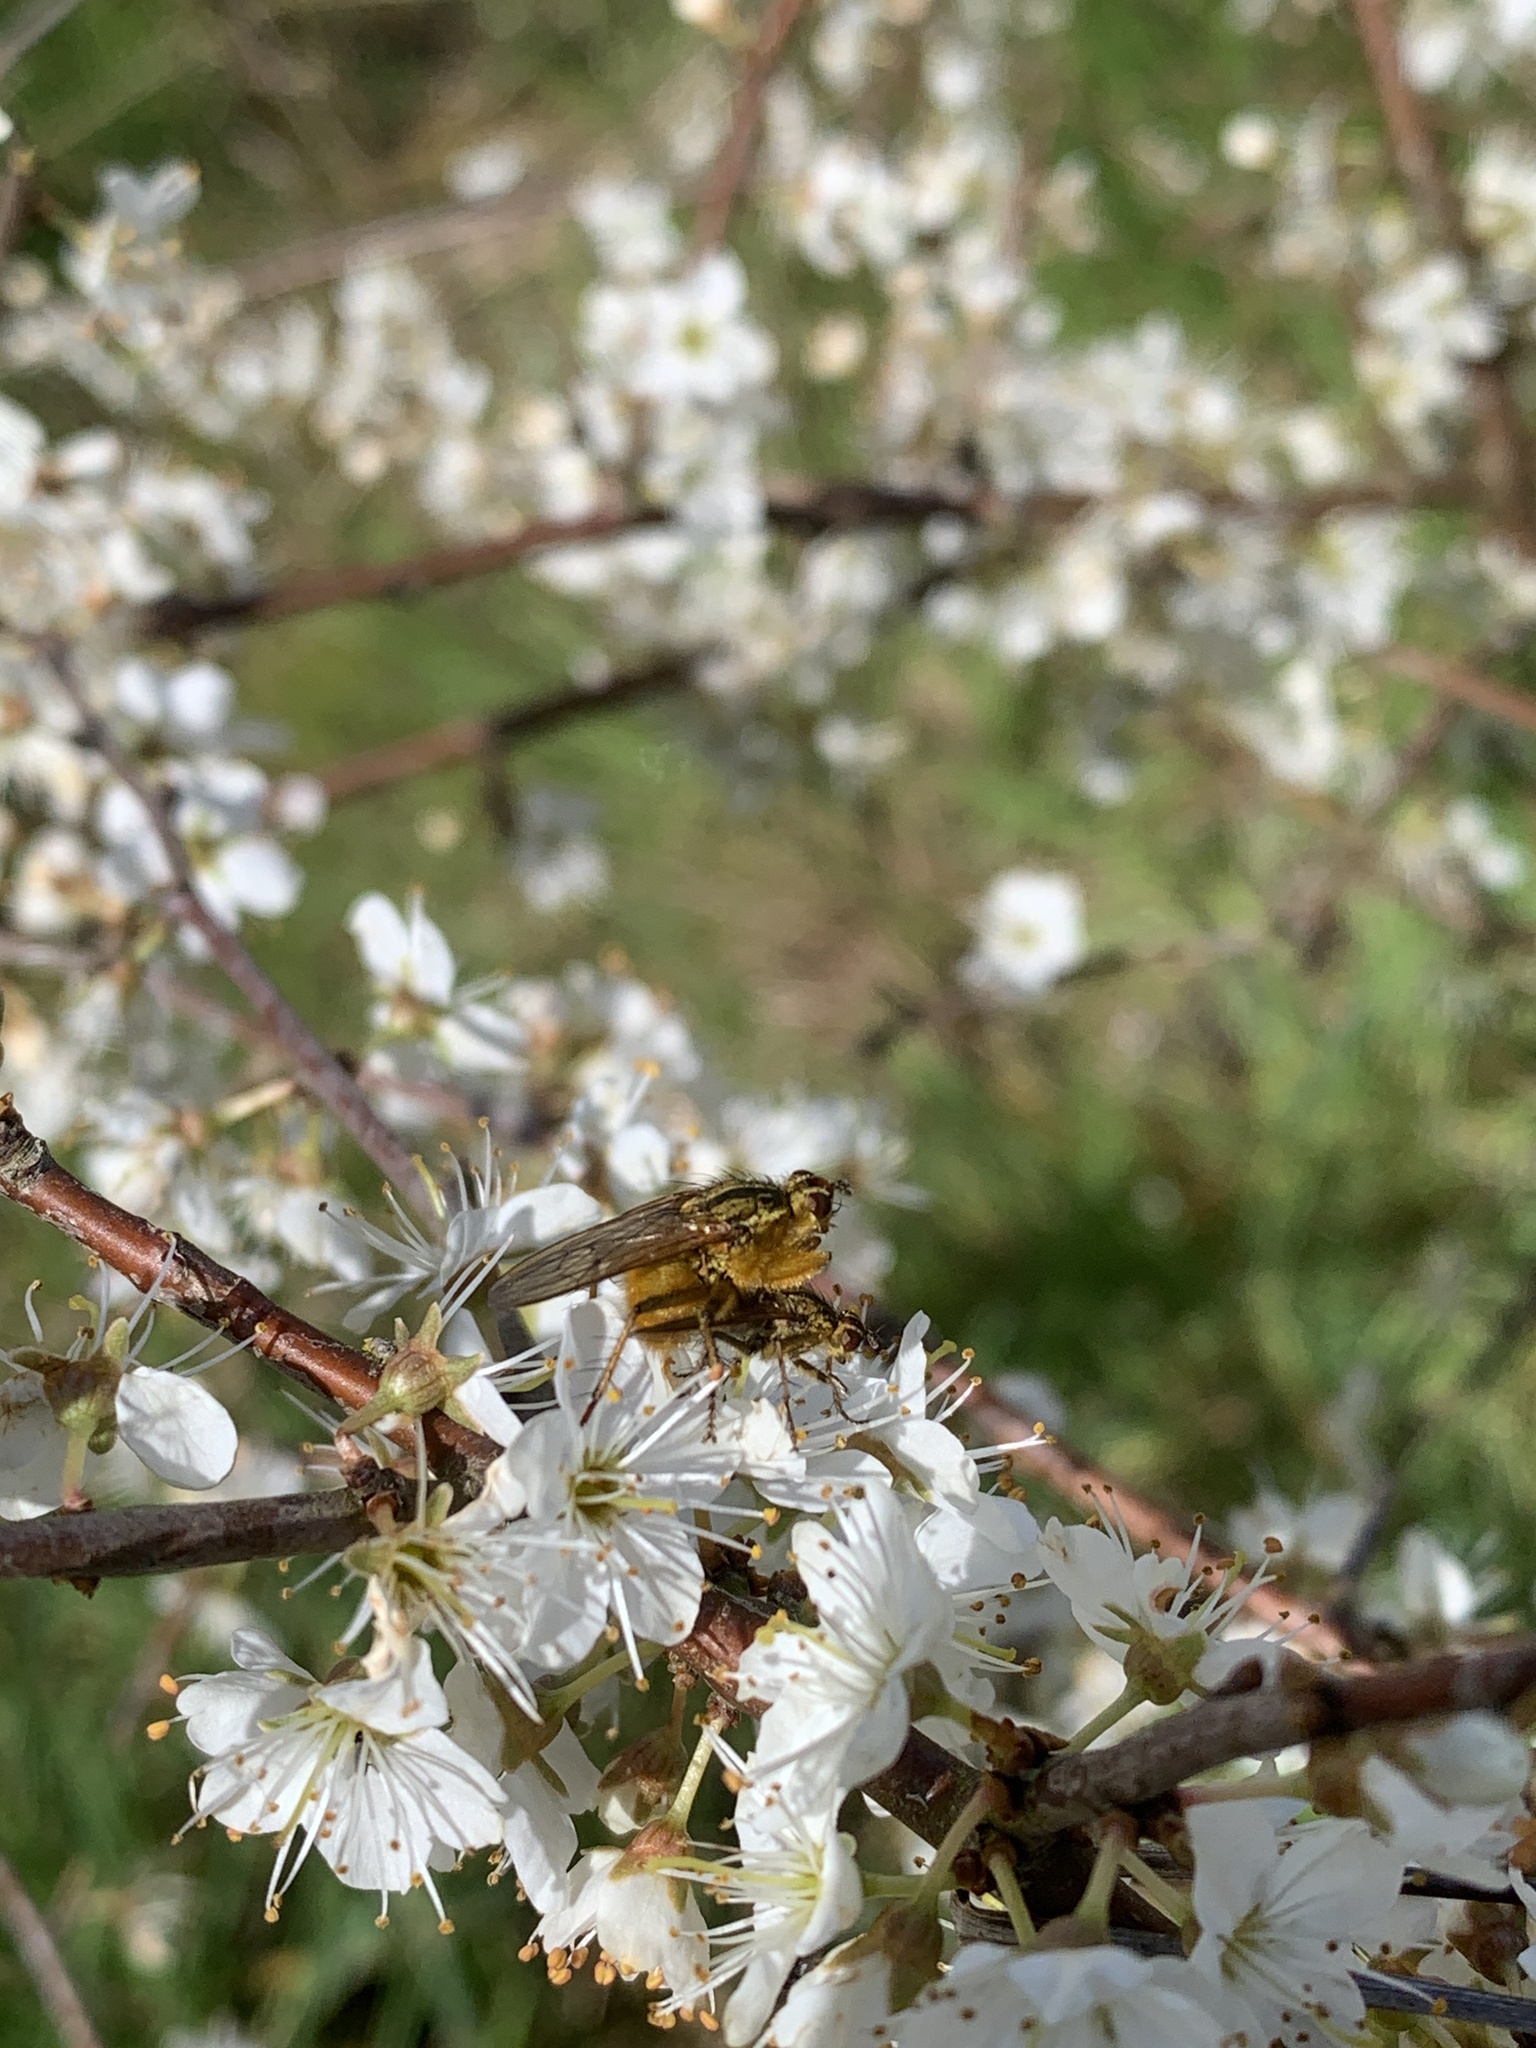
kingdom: Animalia
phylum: Arthropoda
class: Insecta
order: Diptera
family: Scathophagidae
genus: Scathophaga
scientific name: Scathophaga stercoraria
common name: Yellow dung fly
